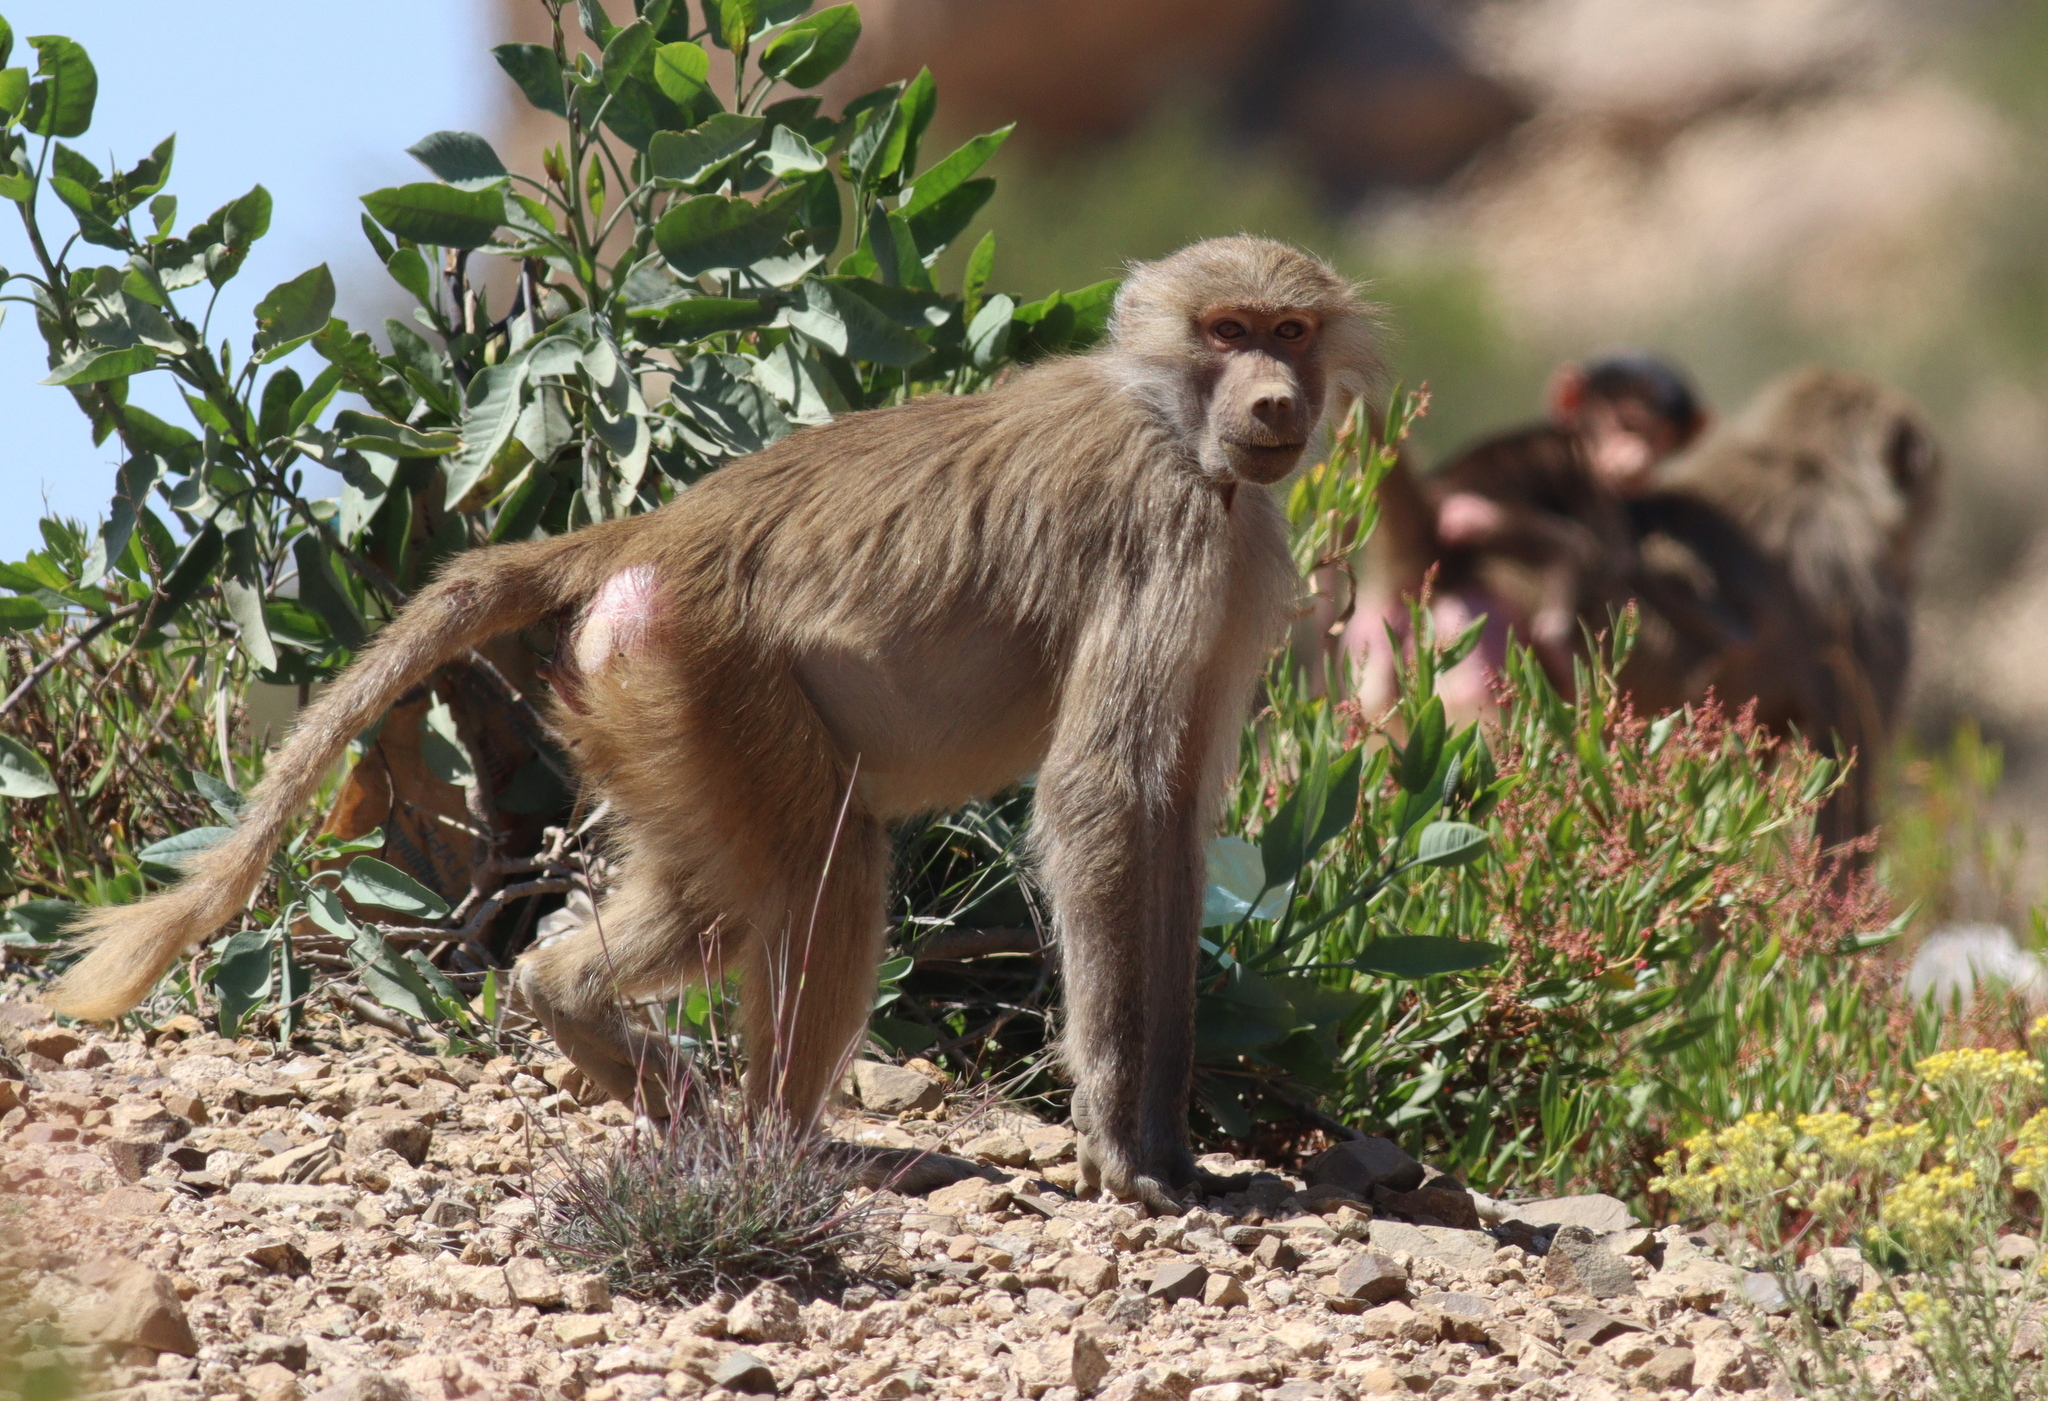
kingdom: Animalia
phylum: Chordata
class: Mammalia
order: Primates
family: Cercopithecidae
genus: Papio
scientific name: Papio hamadryas
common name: Hamadryas baboon
